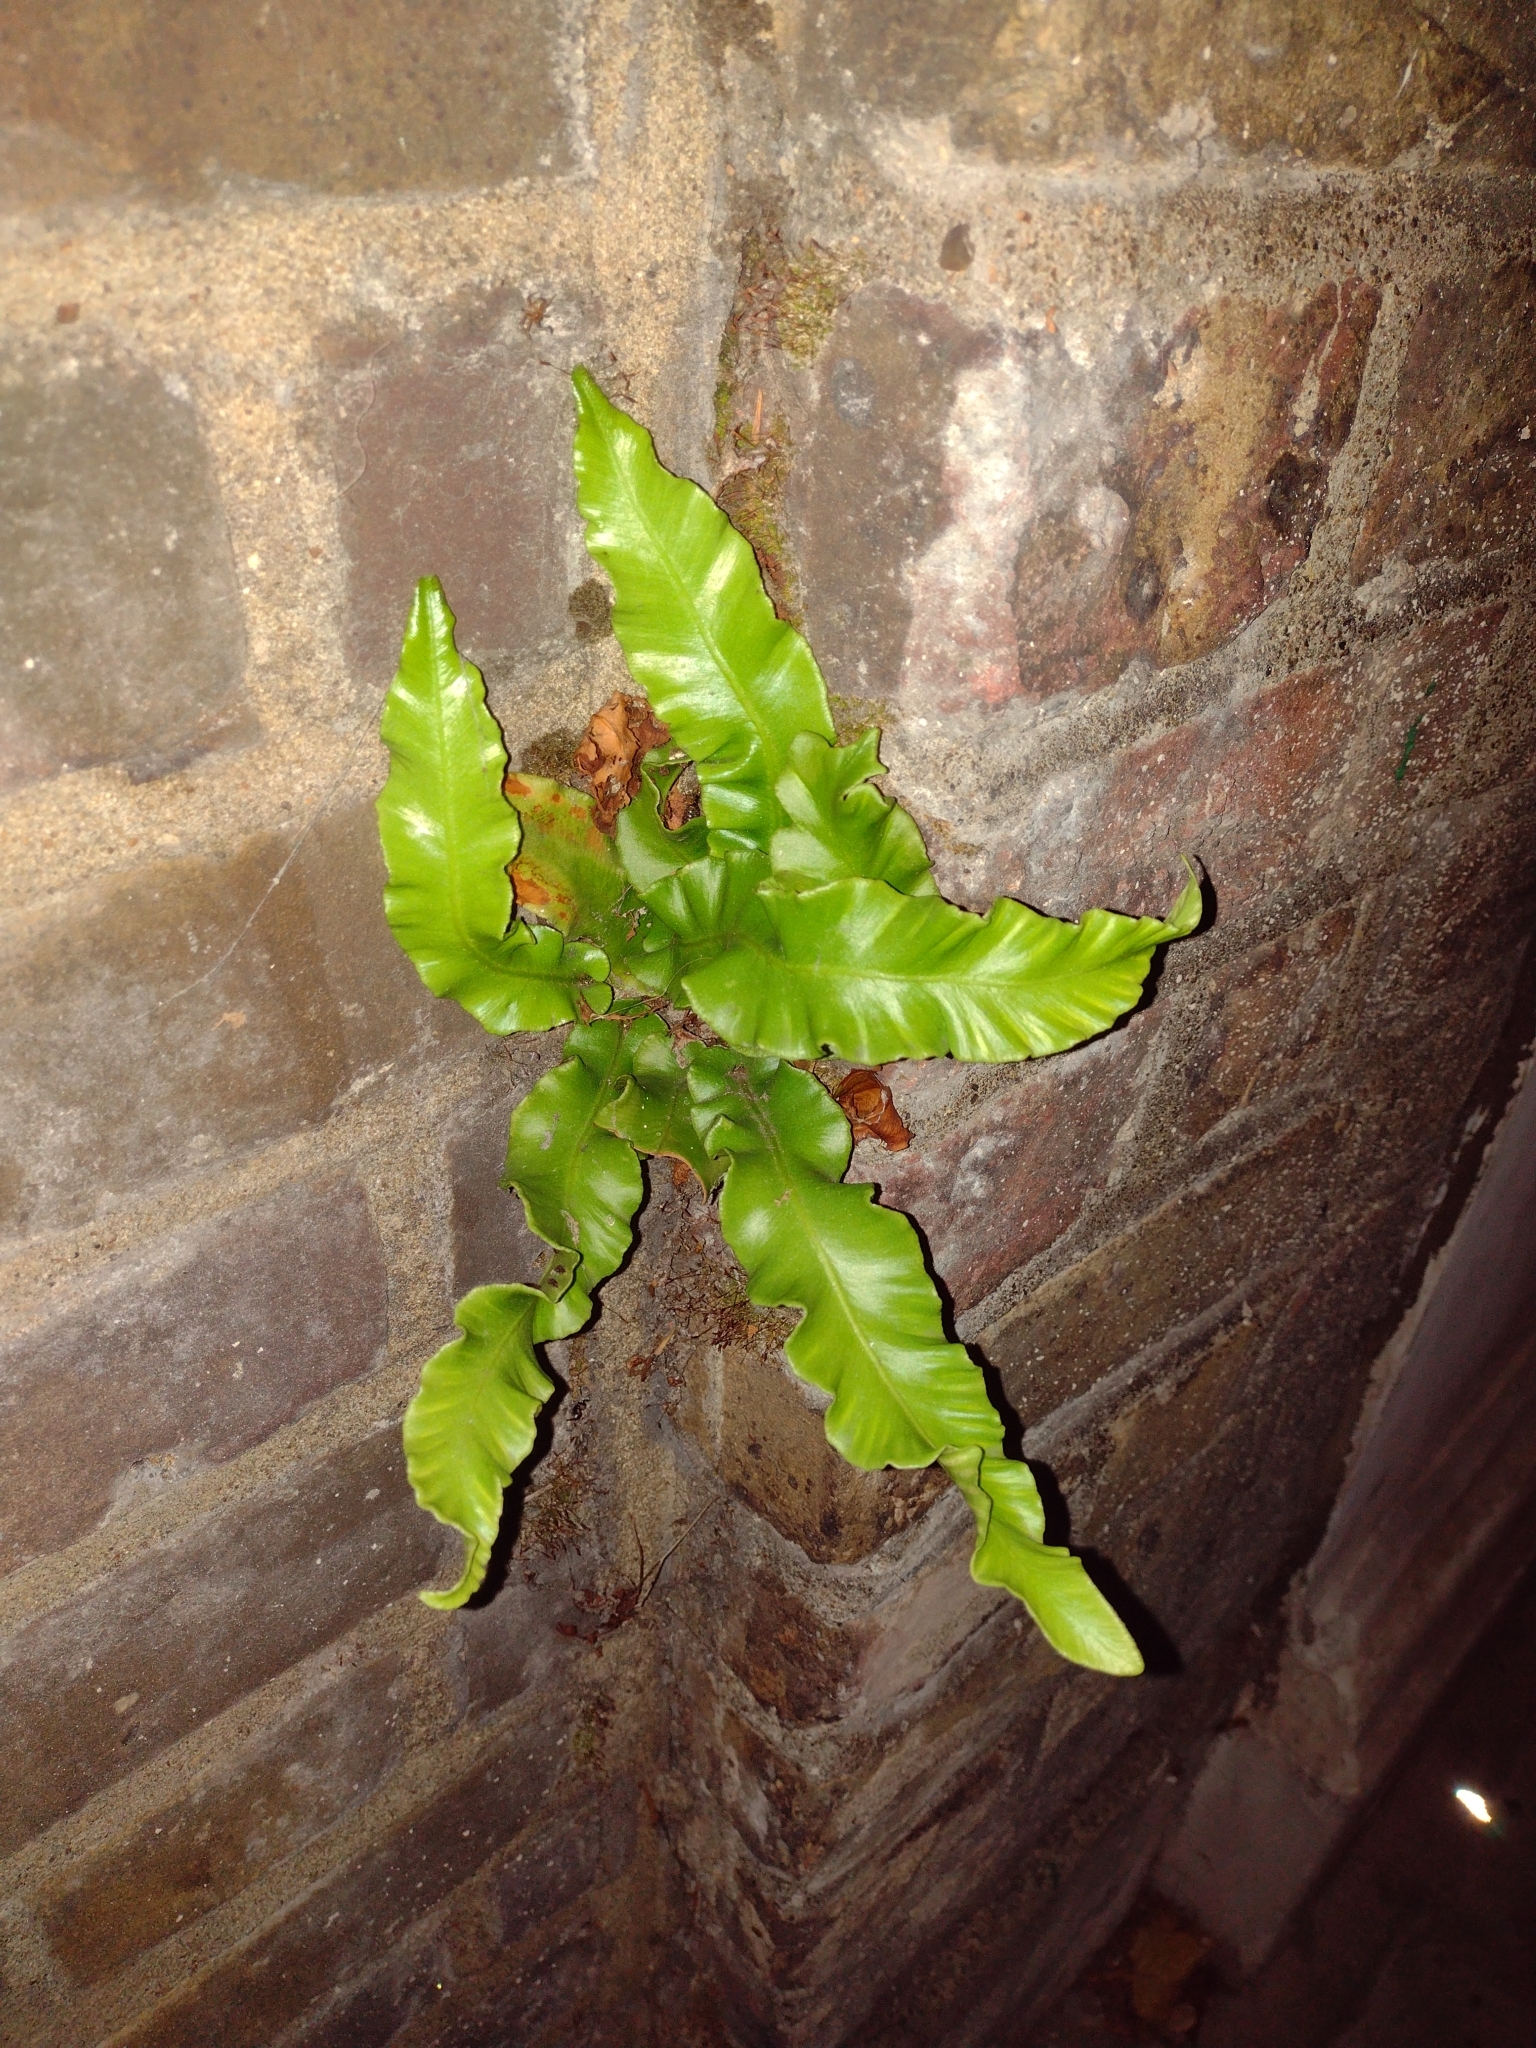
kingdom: Plantae
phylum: Tracheophyta
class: Polypodiopsida
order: Polypodiales
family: Aspleniaceae
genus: Asplenium
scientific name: Asplenium scolopendrium
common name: Hart's-tongue fern
